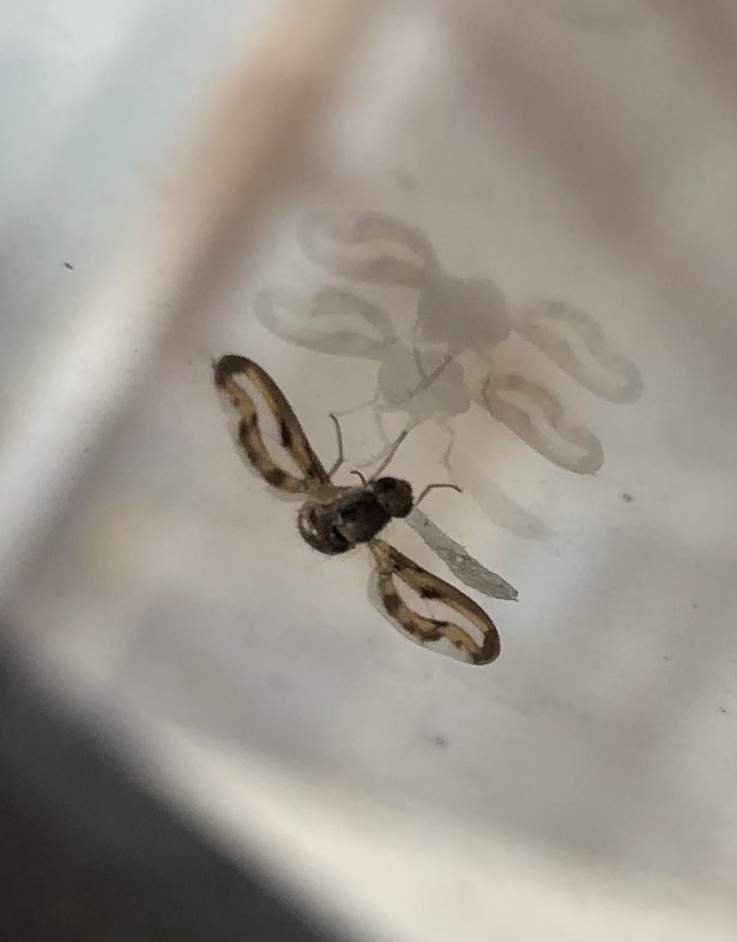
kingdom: Animalia
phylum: Arthropoda
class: Insecta
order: Diptera
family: Pallopteridae
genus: Toxonevra
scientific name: Toxonevra muliebris
